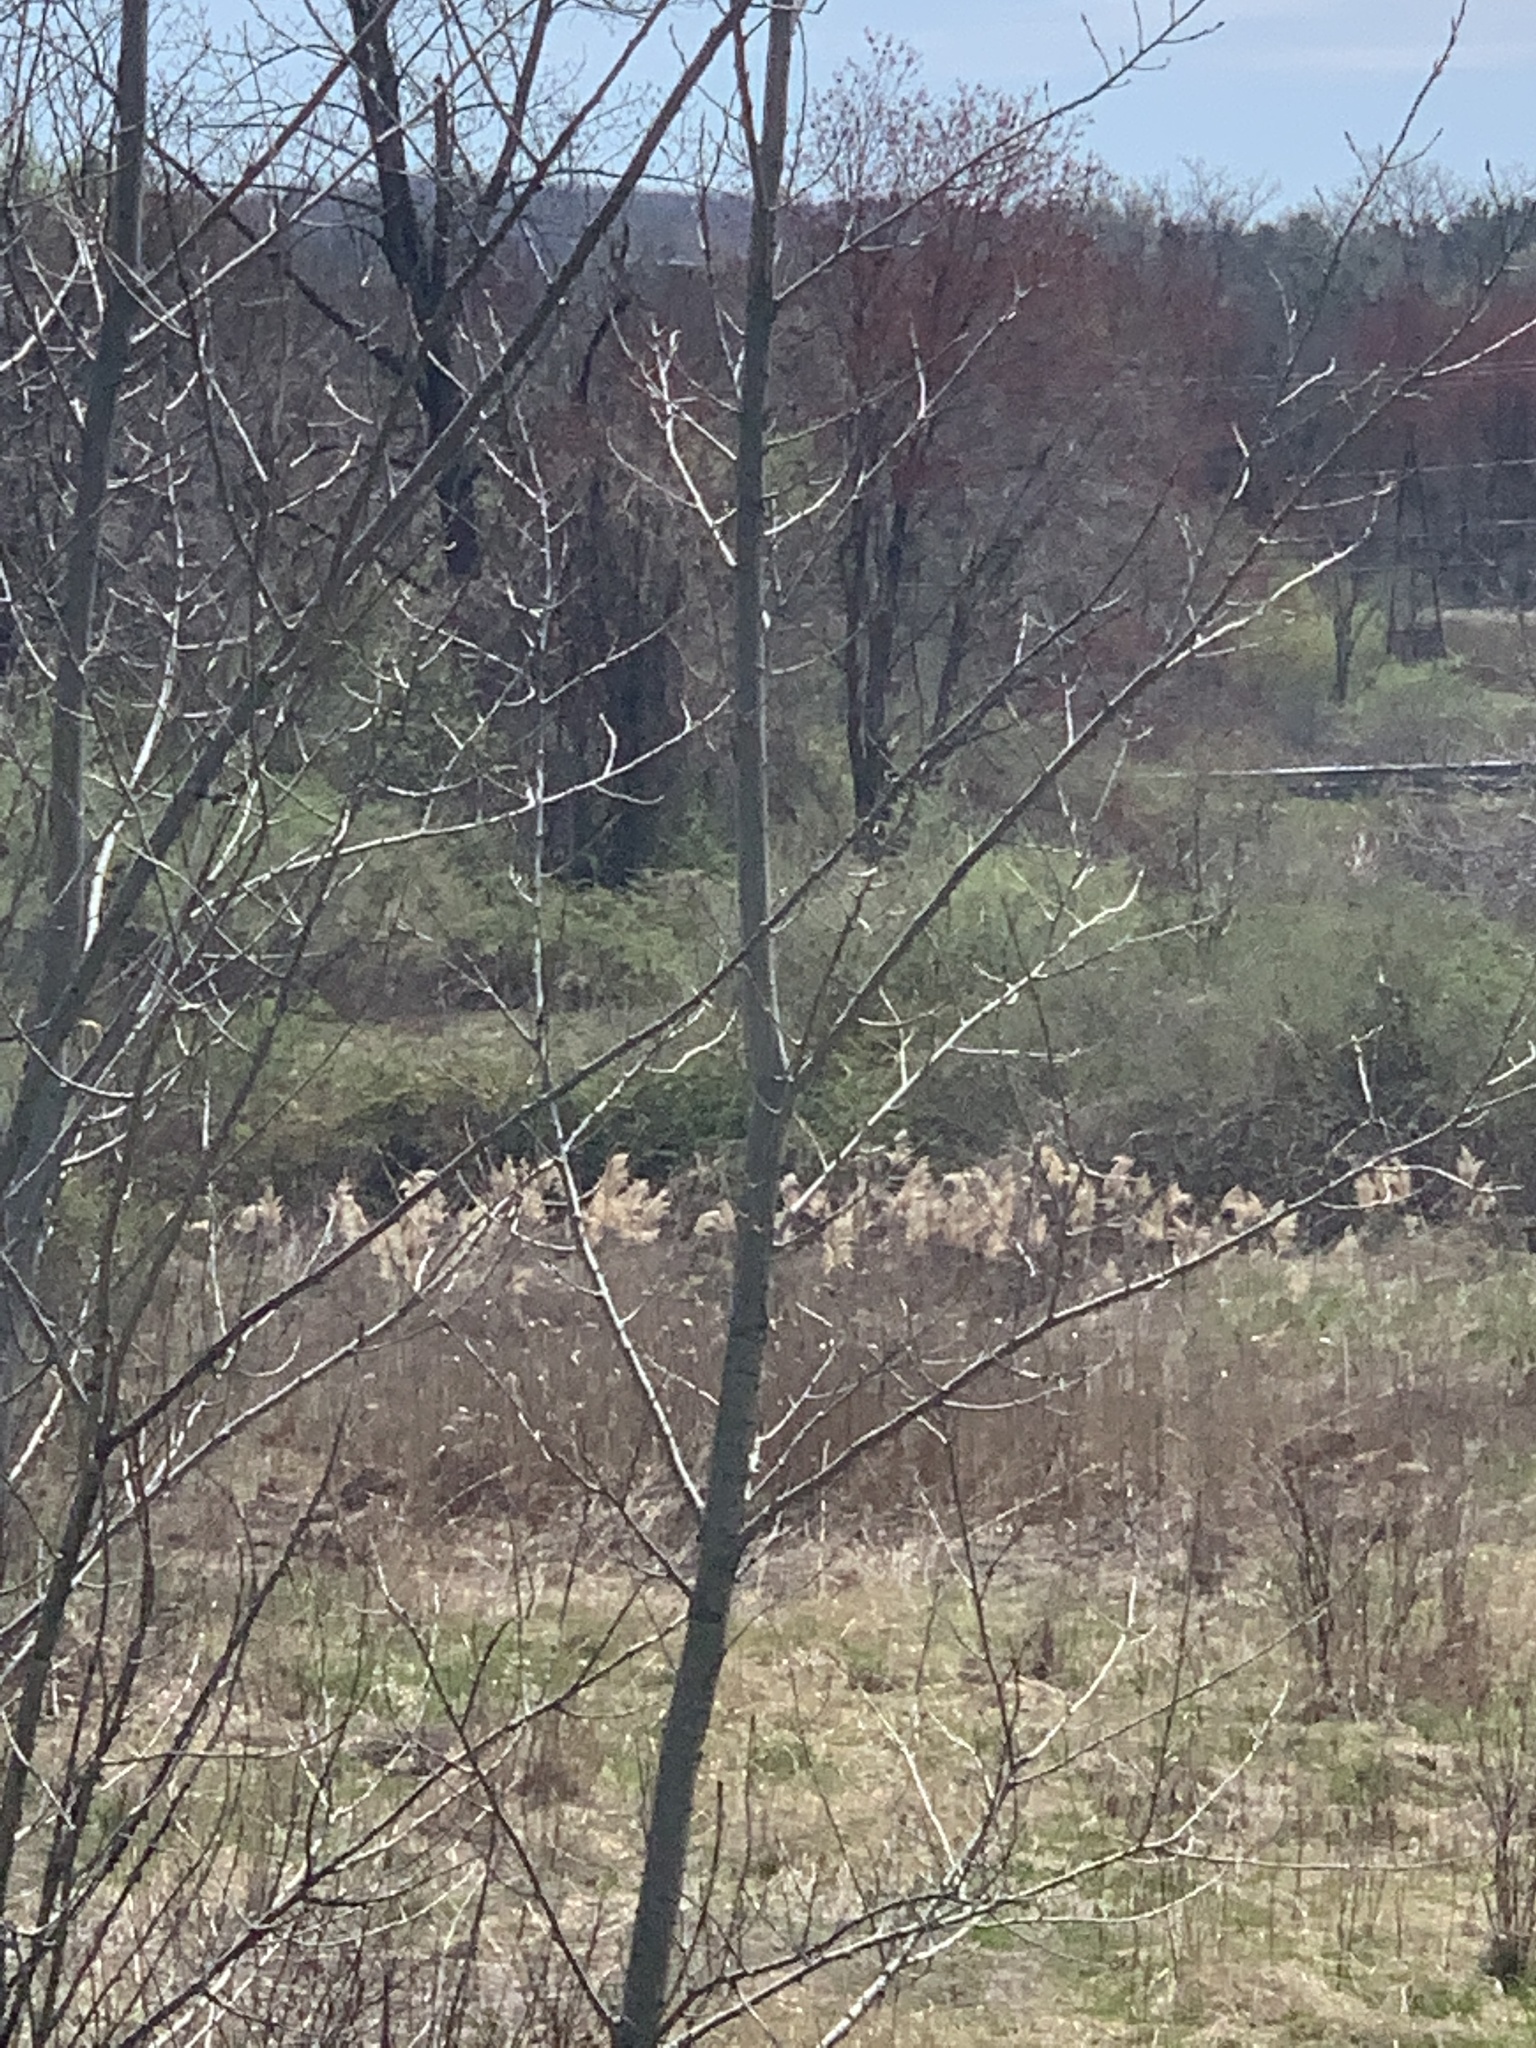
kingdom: Plantae
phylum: Tracheophyta
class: Liliopsida
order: Poales
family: Poaceae
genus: Phragmites
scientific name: Phragmites australis
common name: Common reed
